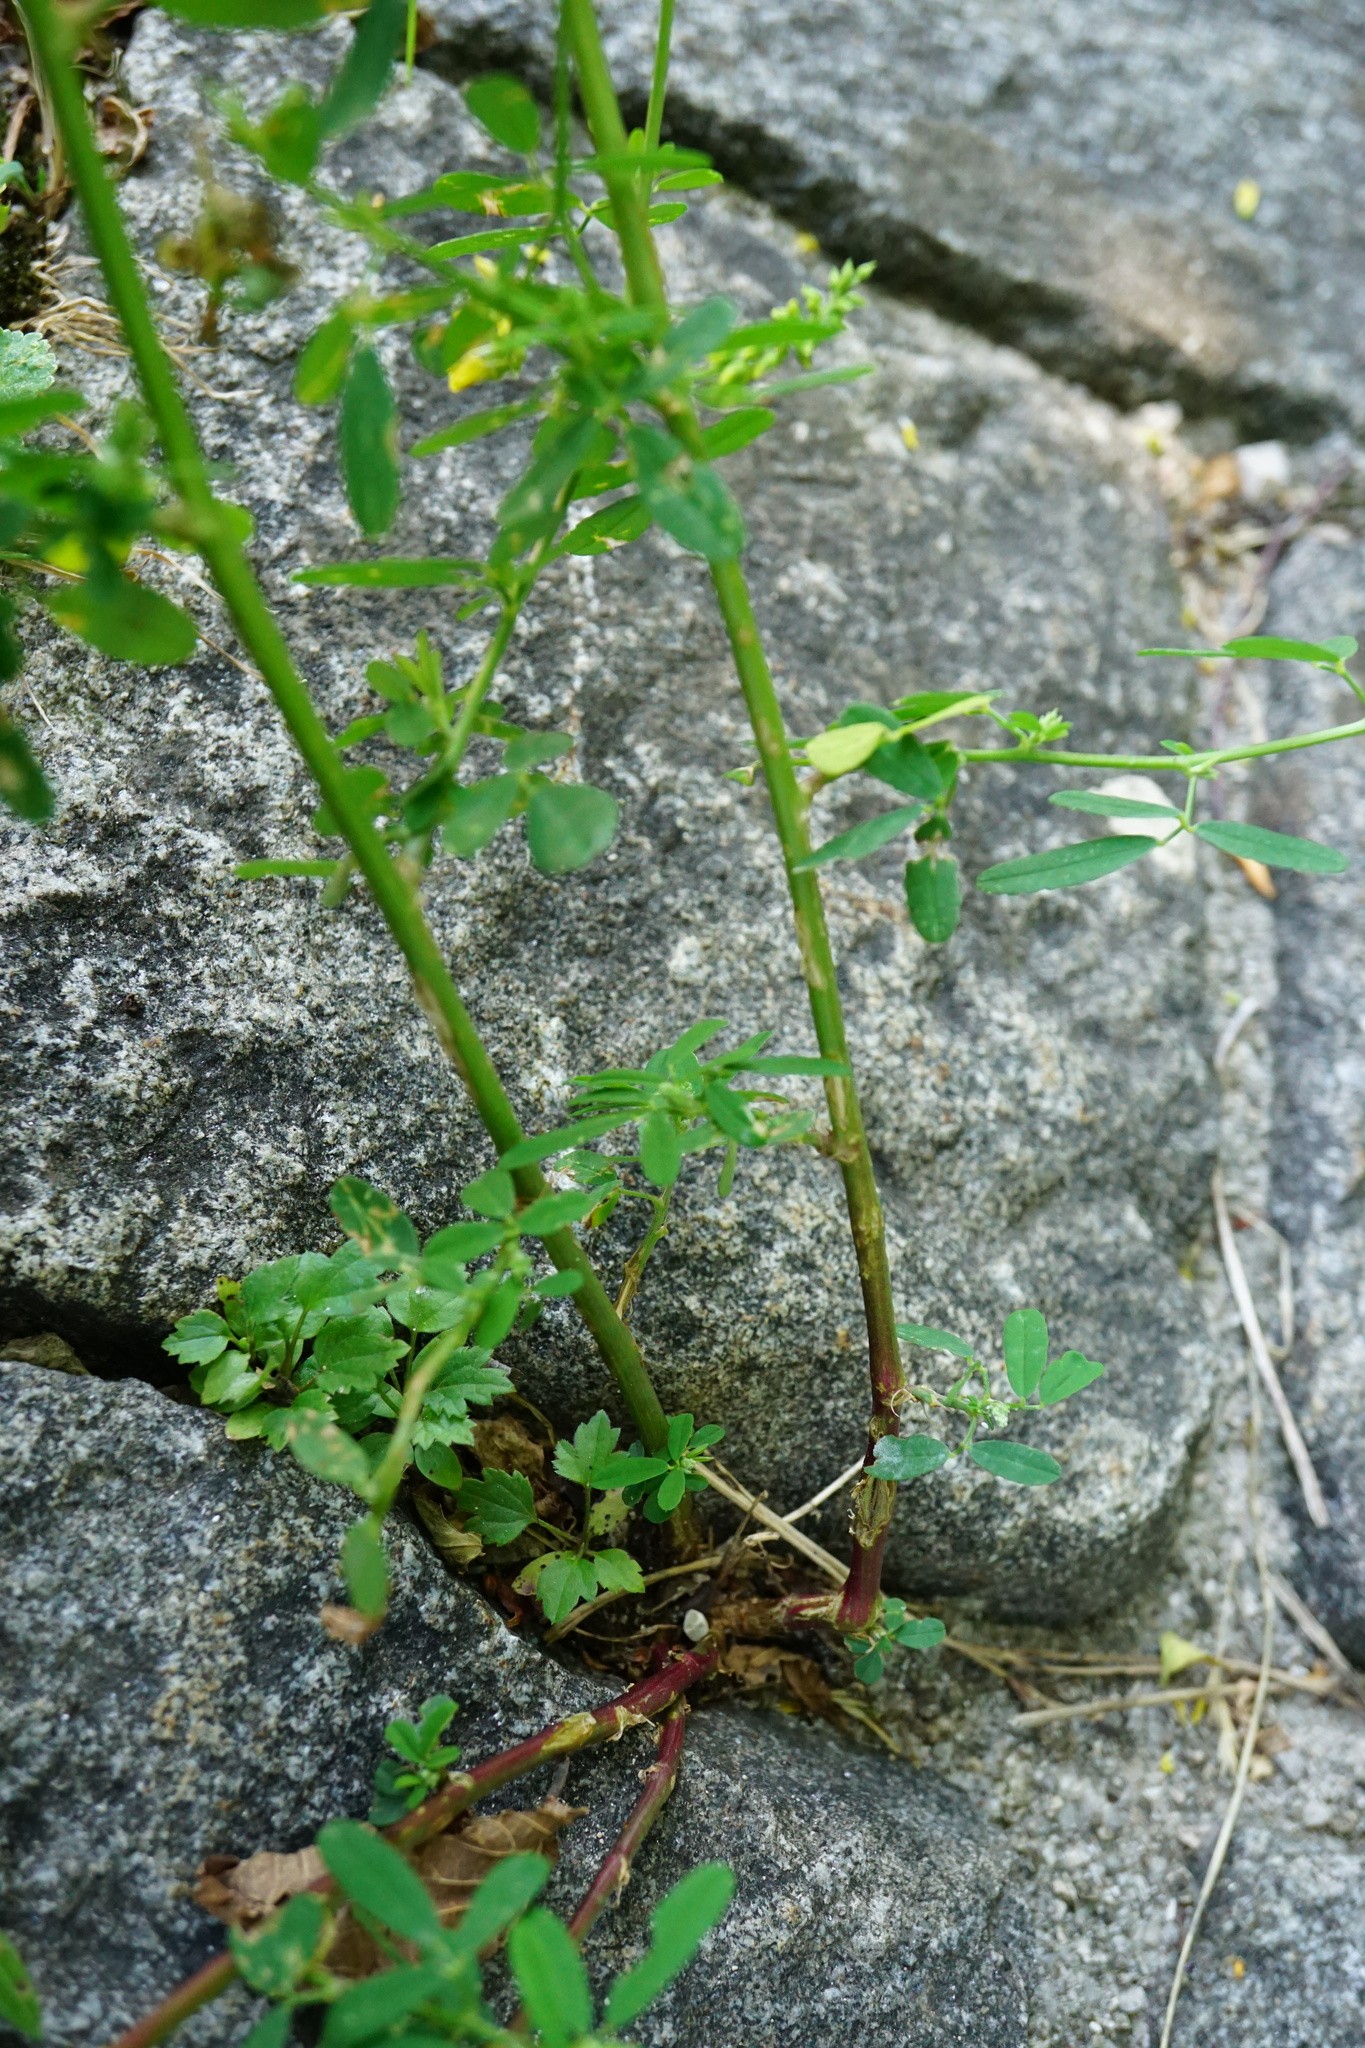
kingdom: Plantae
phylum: Tracheophyta
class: Magnoliopsida
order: Fabales
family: Fabaceae
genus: Melilotus
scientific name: Melilotus altissimus
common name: Tall melilot
